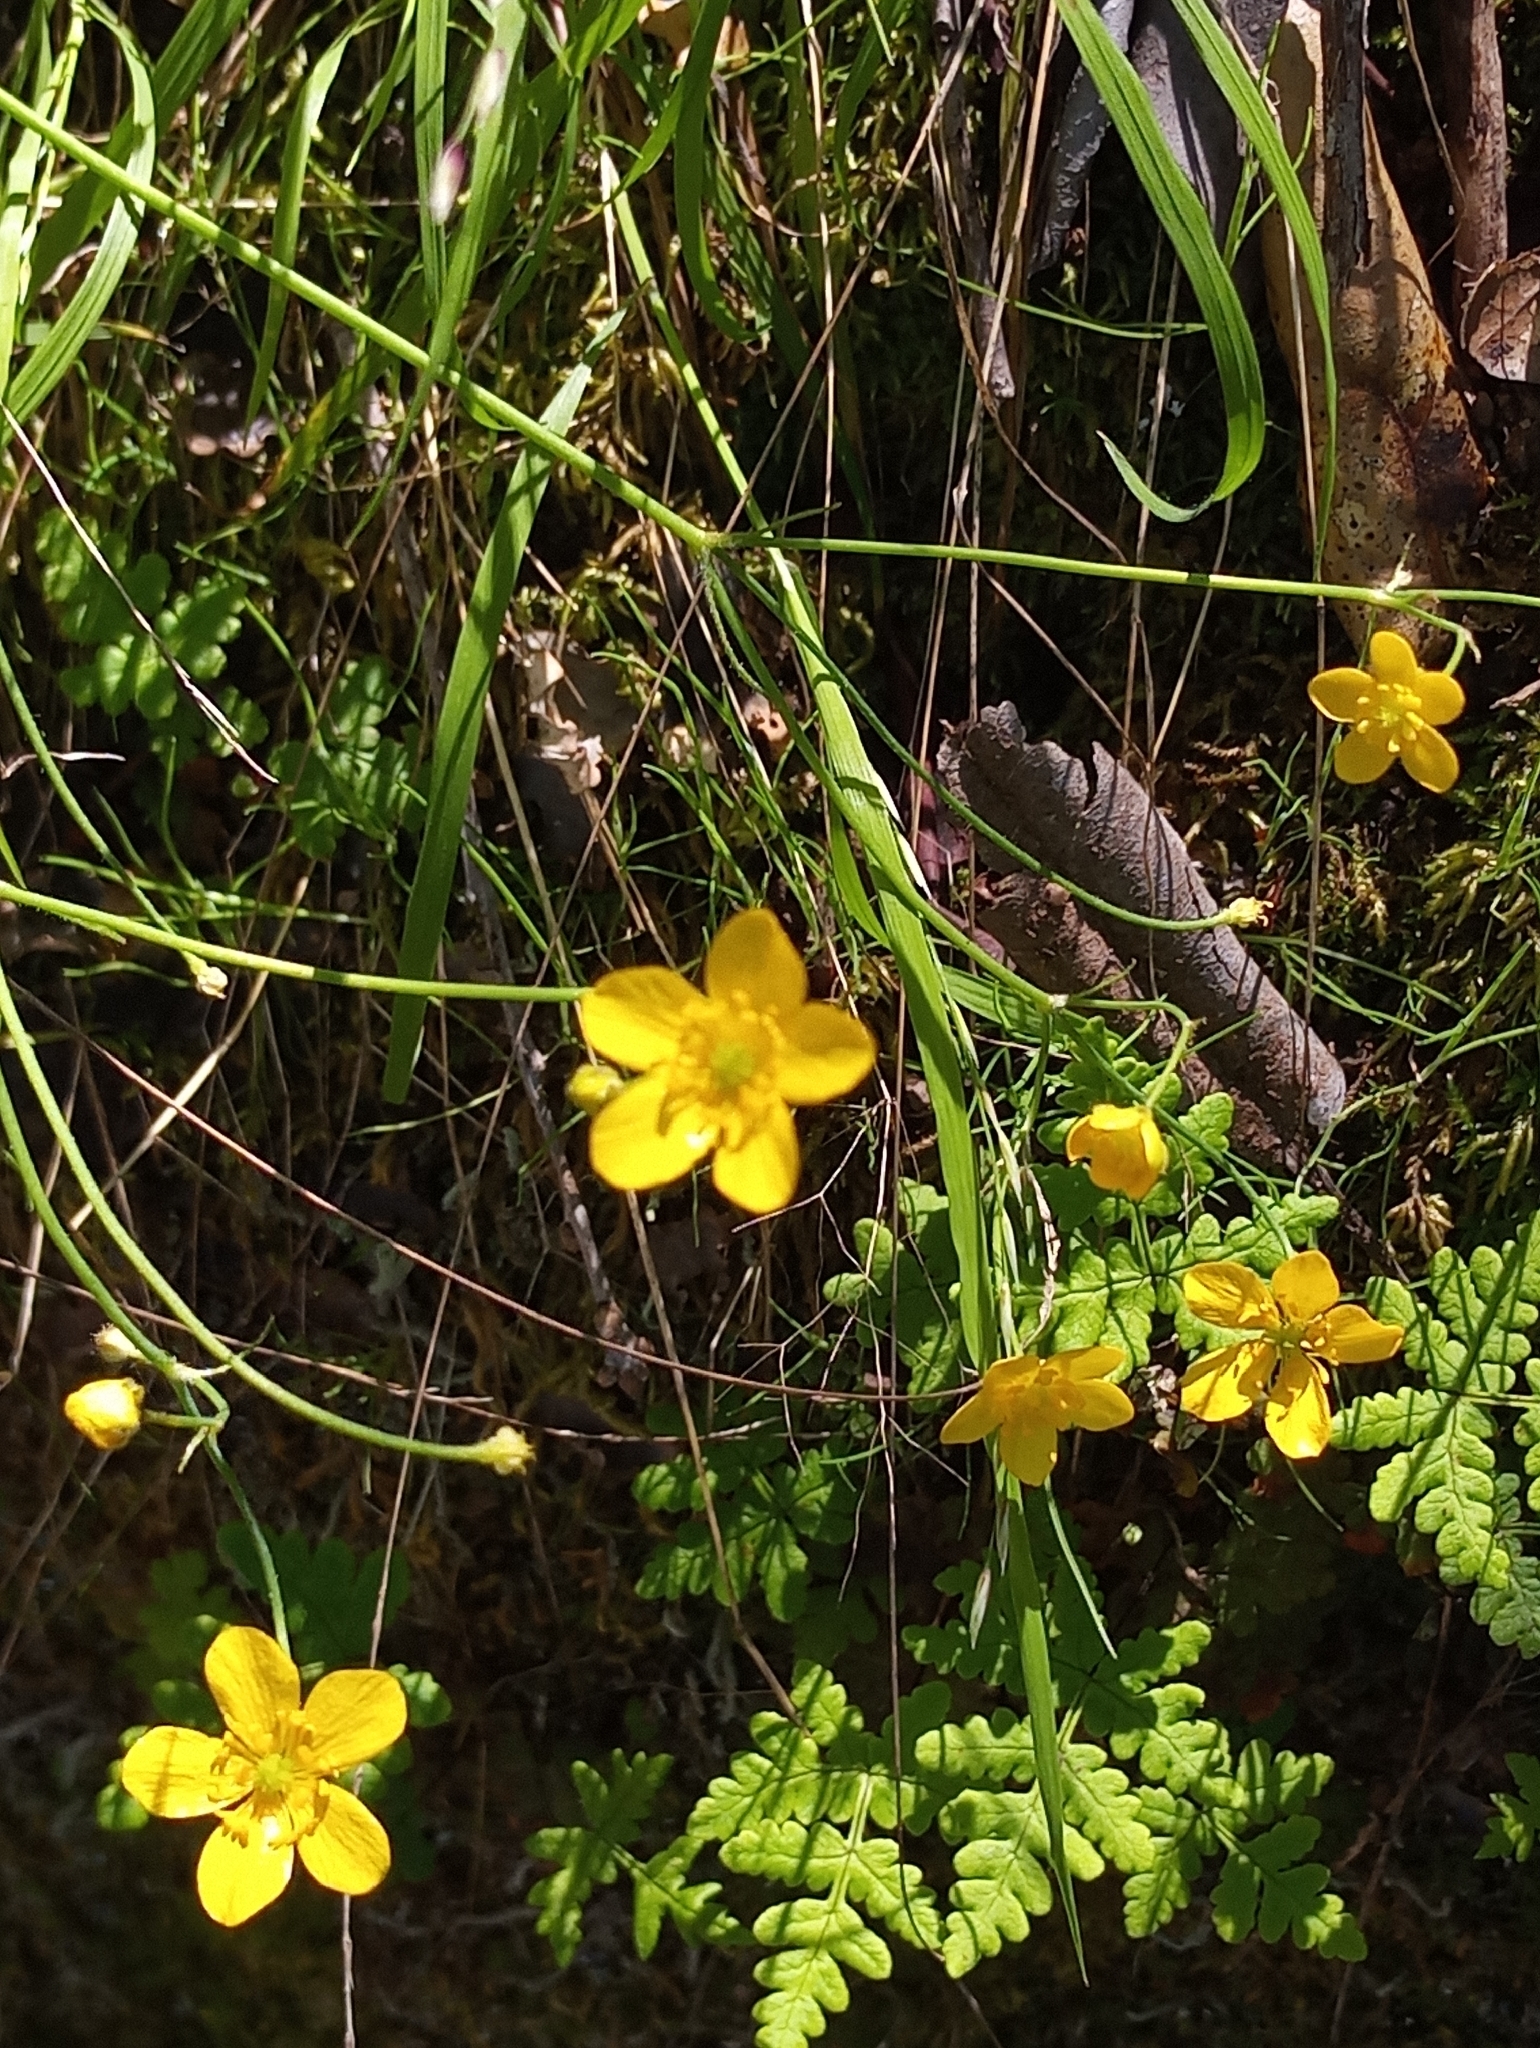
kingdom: Plantae
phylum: Tracheophyta
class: Magnoliopsida
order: Ranunculales
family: Ranunculaceae
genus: Ranunculus
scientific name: Ranunculus occidentalis
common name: Western buttercup
